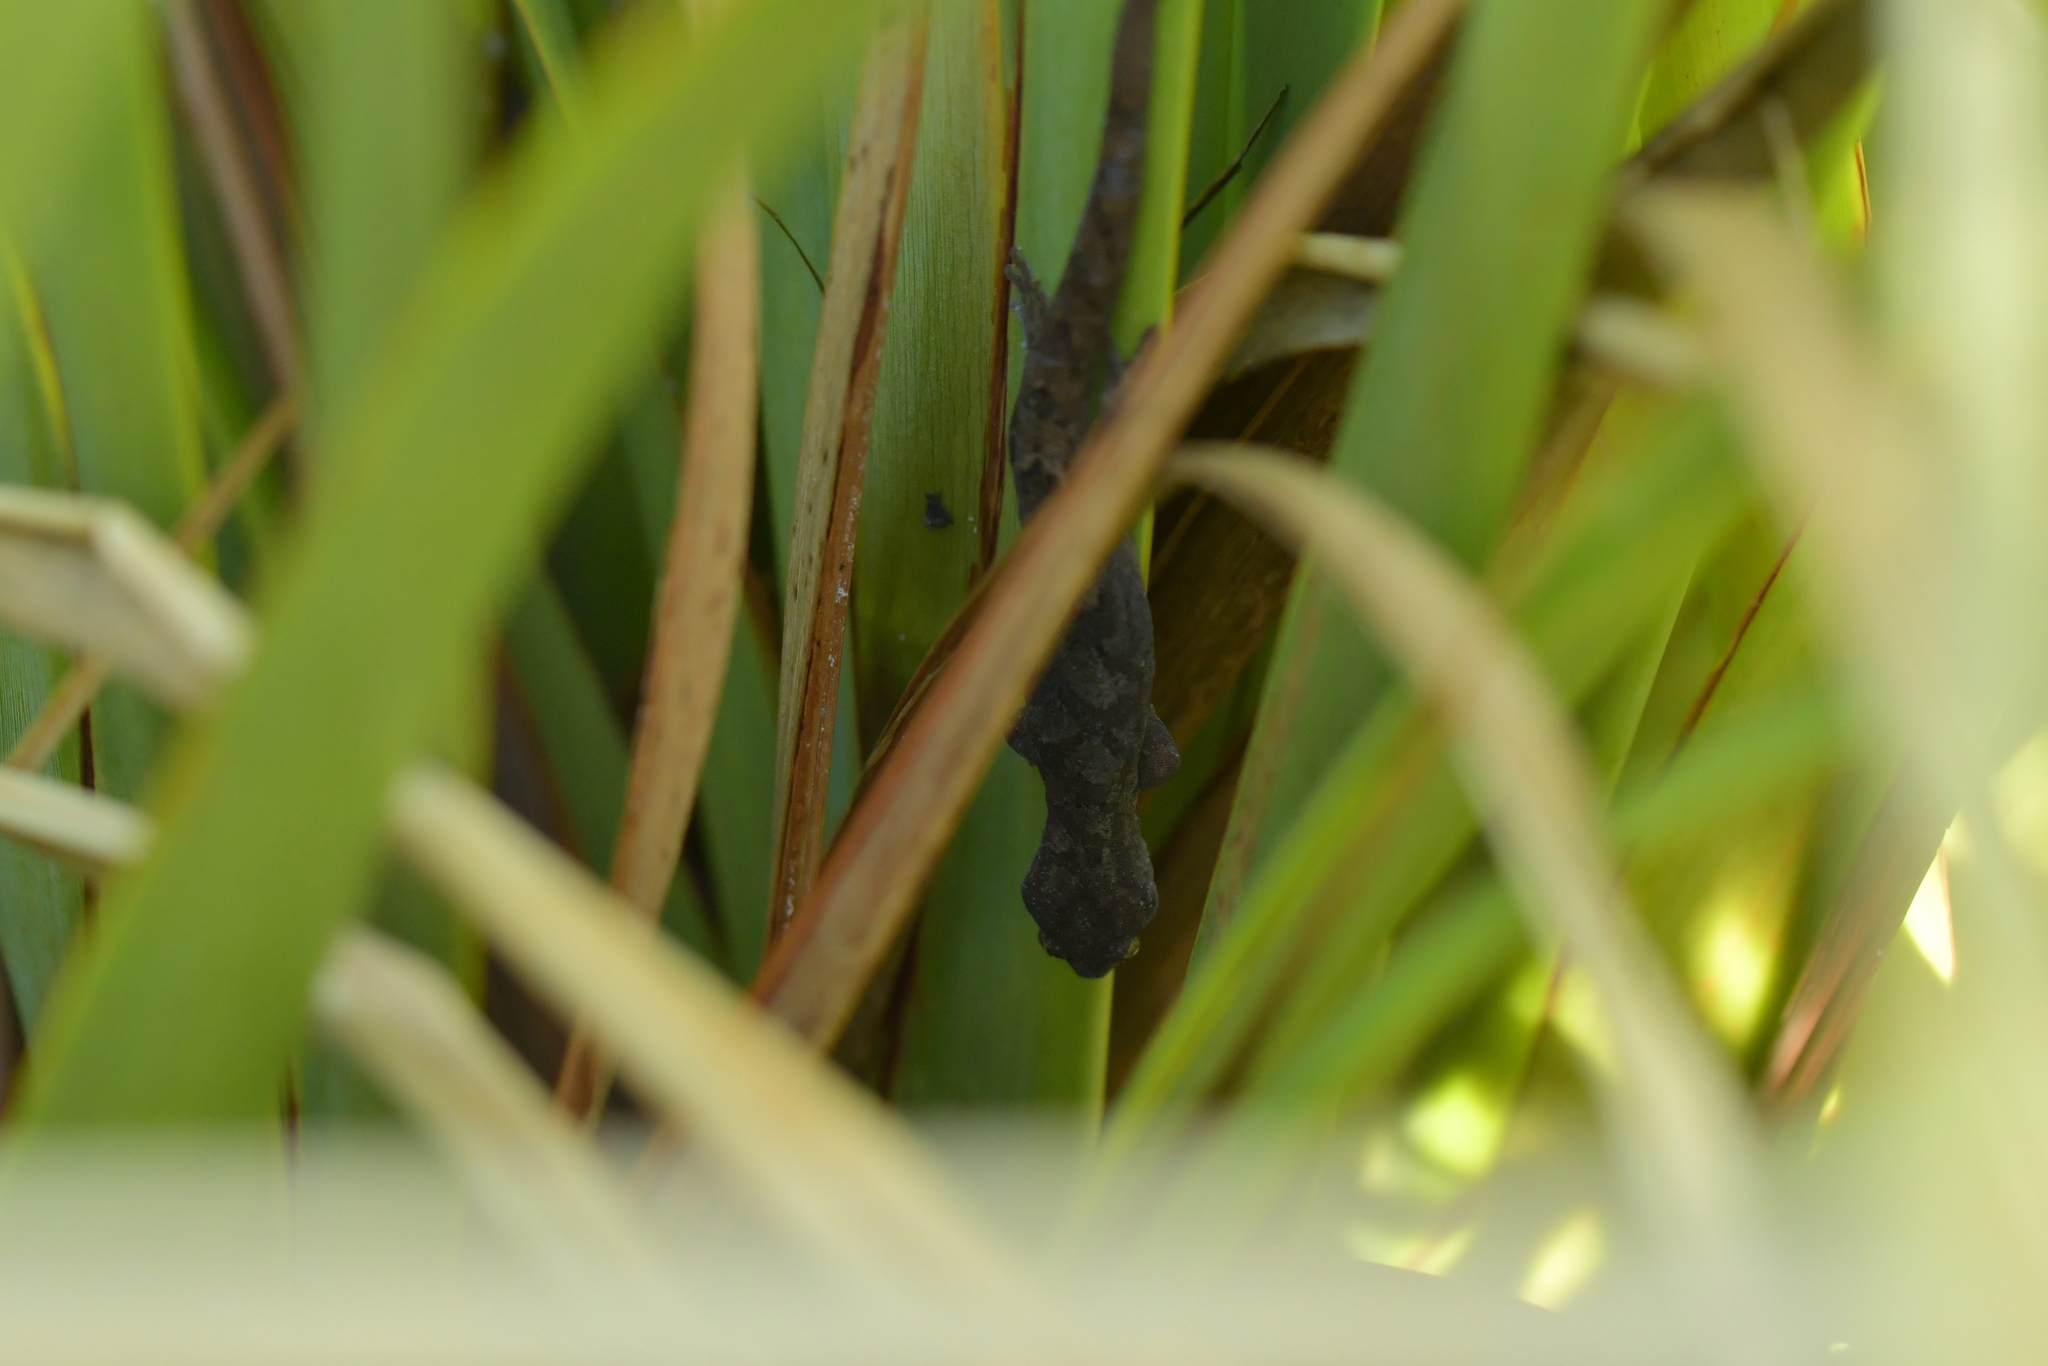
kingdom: Animalia
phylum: Chordata
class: Squamata
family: Diplodactylidae
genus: Woodworthia
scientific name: Woodworthia maculata
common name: Raukawa gecko
